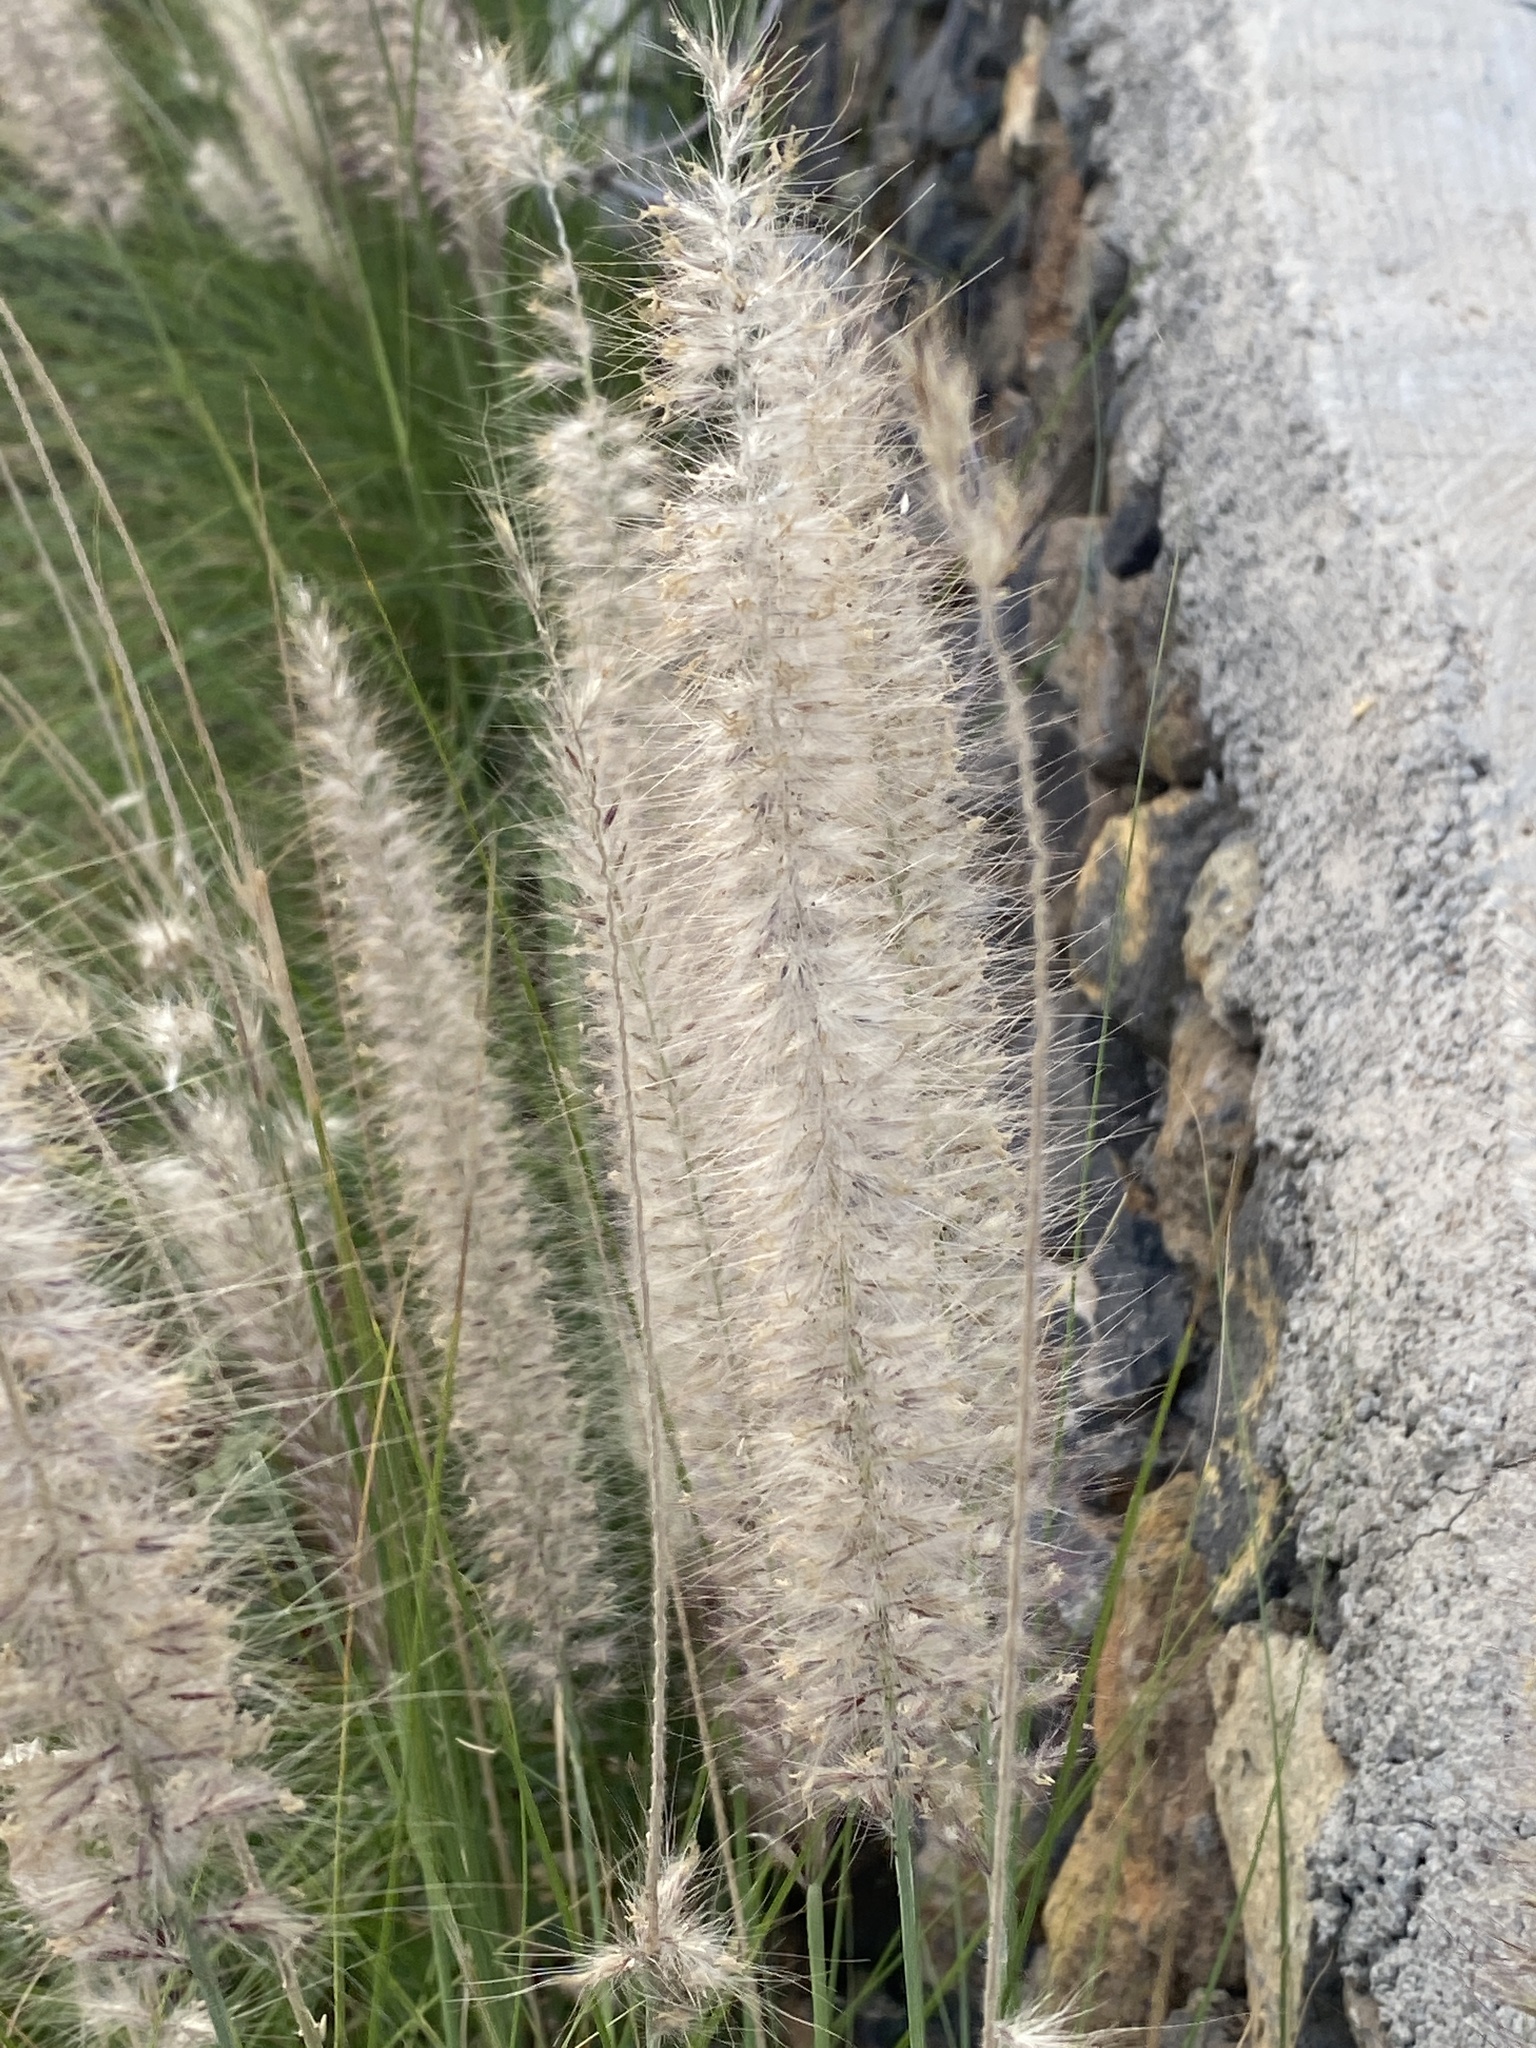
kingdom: Plantae
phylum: Tracheophyta
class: Liliopsida
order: Poales
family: Poaceae
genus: Cenchrus
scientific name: Cenchrus setaceus
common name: Crimson fountaingrass
